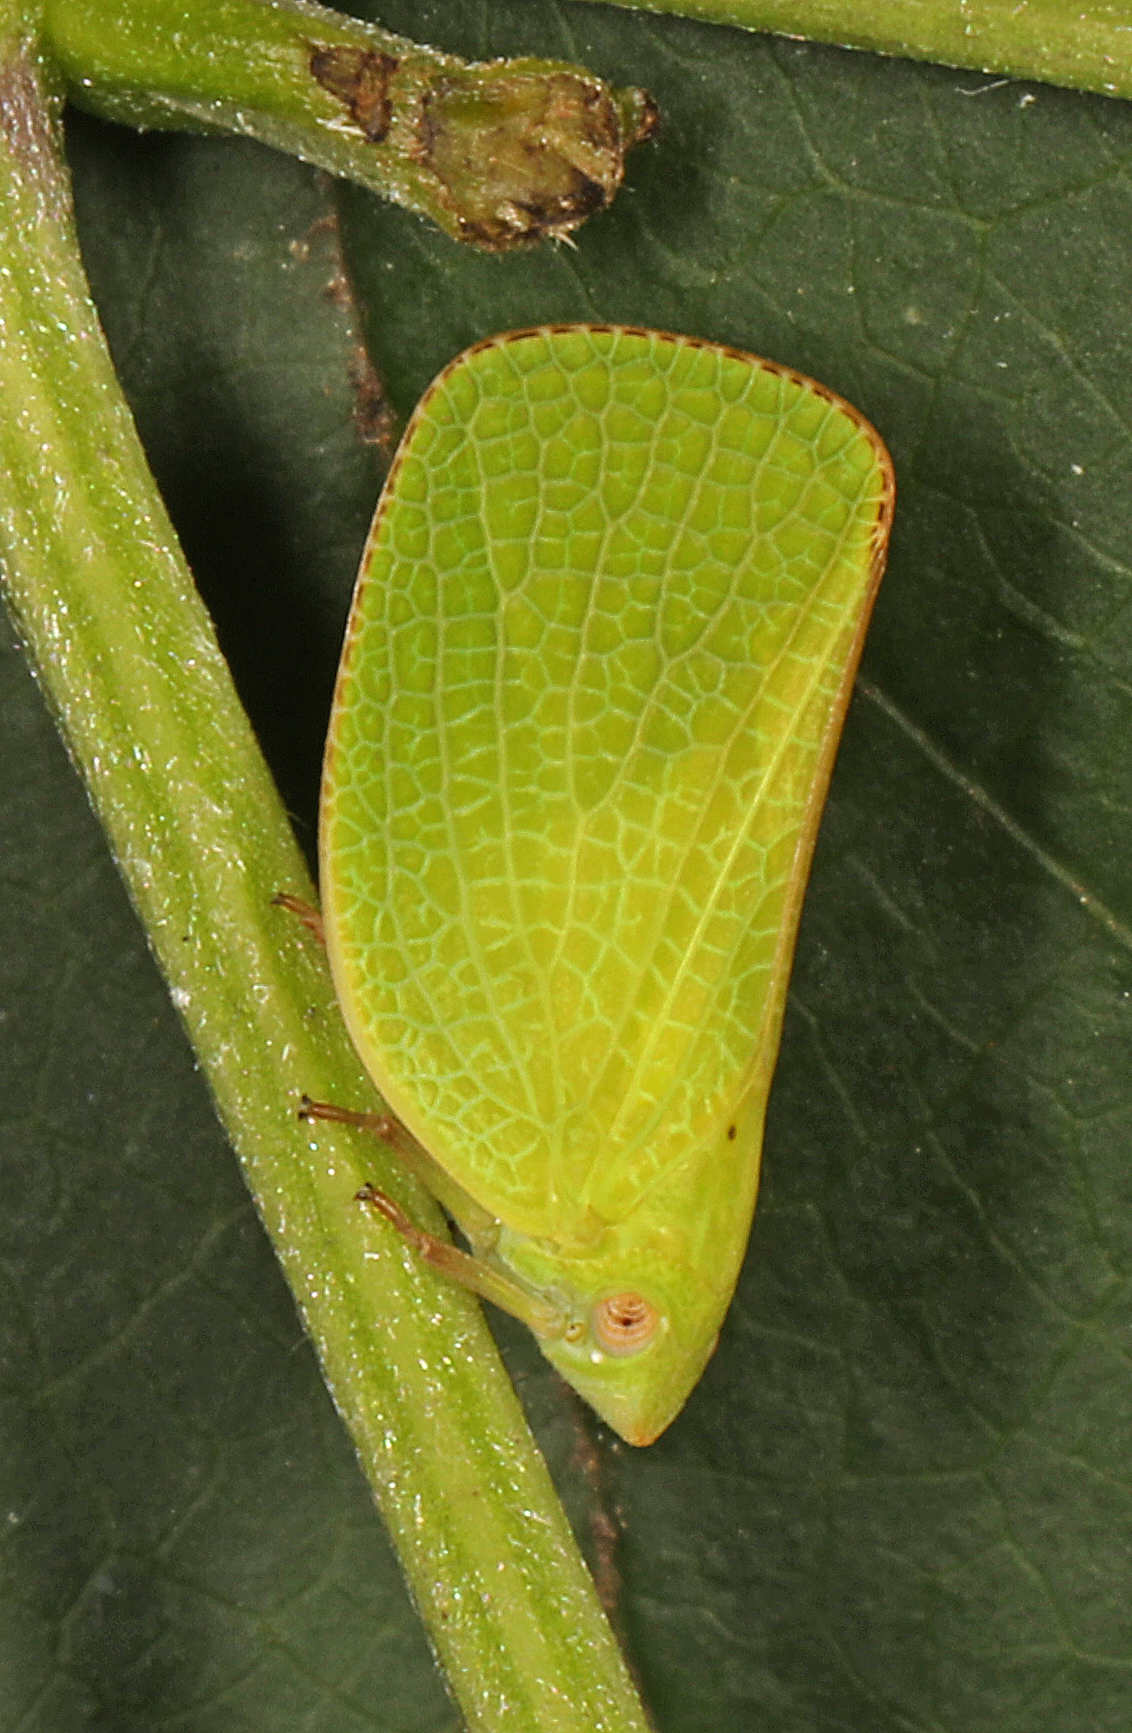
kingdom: Animalia
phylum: Arthropoda
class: Insecta
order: Hemiptera
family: Acanaloniidae
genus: Acanalonia
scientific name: Acanalonia conica
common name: Green cone-headed planthopper
